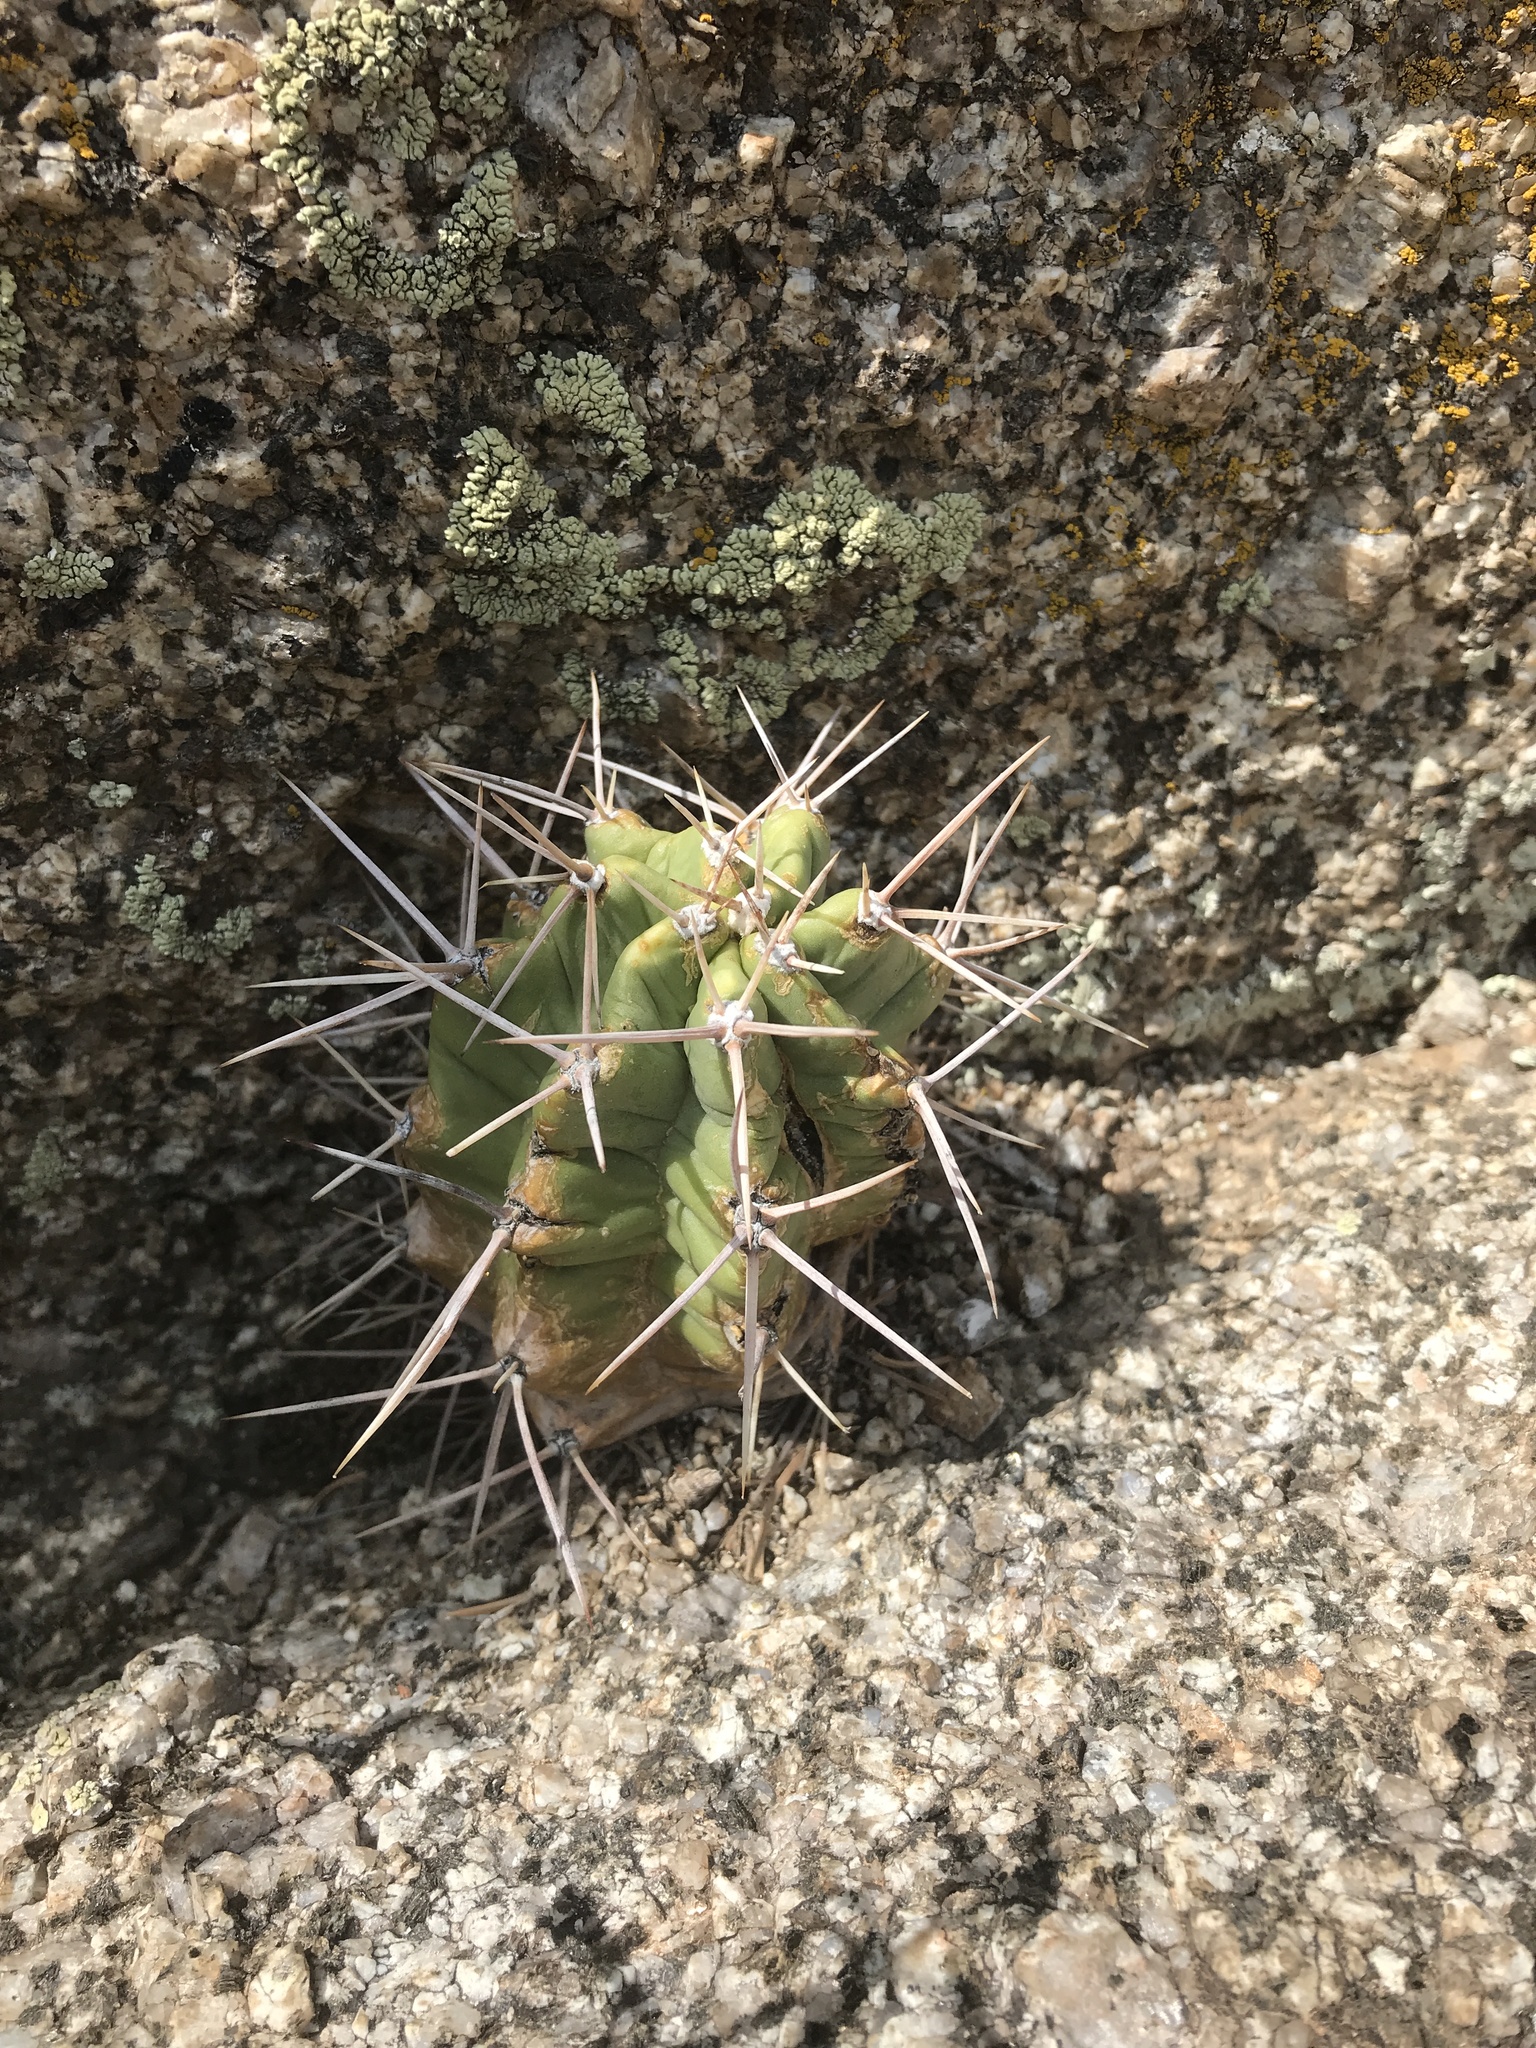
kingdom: Plantae
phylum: Tracheophyta
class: Magnoliopsida
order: Caryophyllales
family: Cactaceae
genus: Echinocereus
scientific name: Echinocereus triglochidiatus
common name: Claretcup hedgehog
